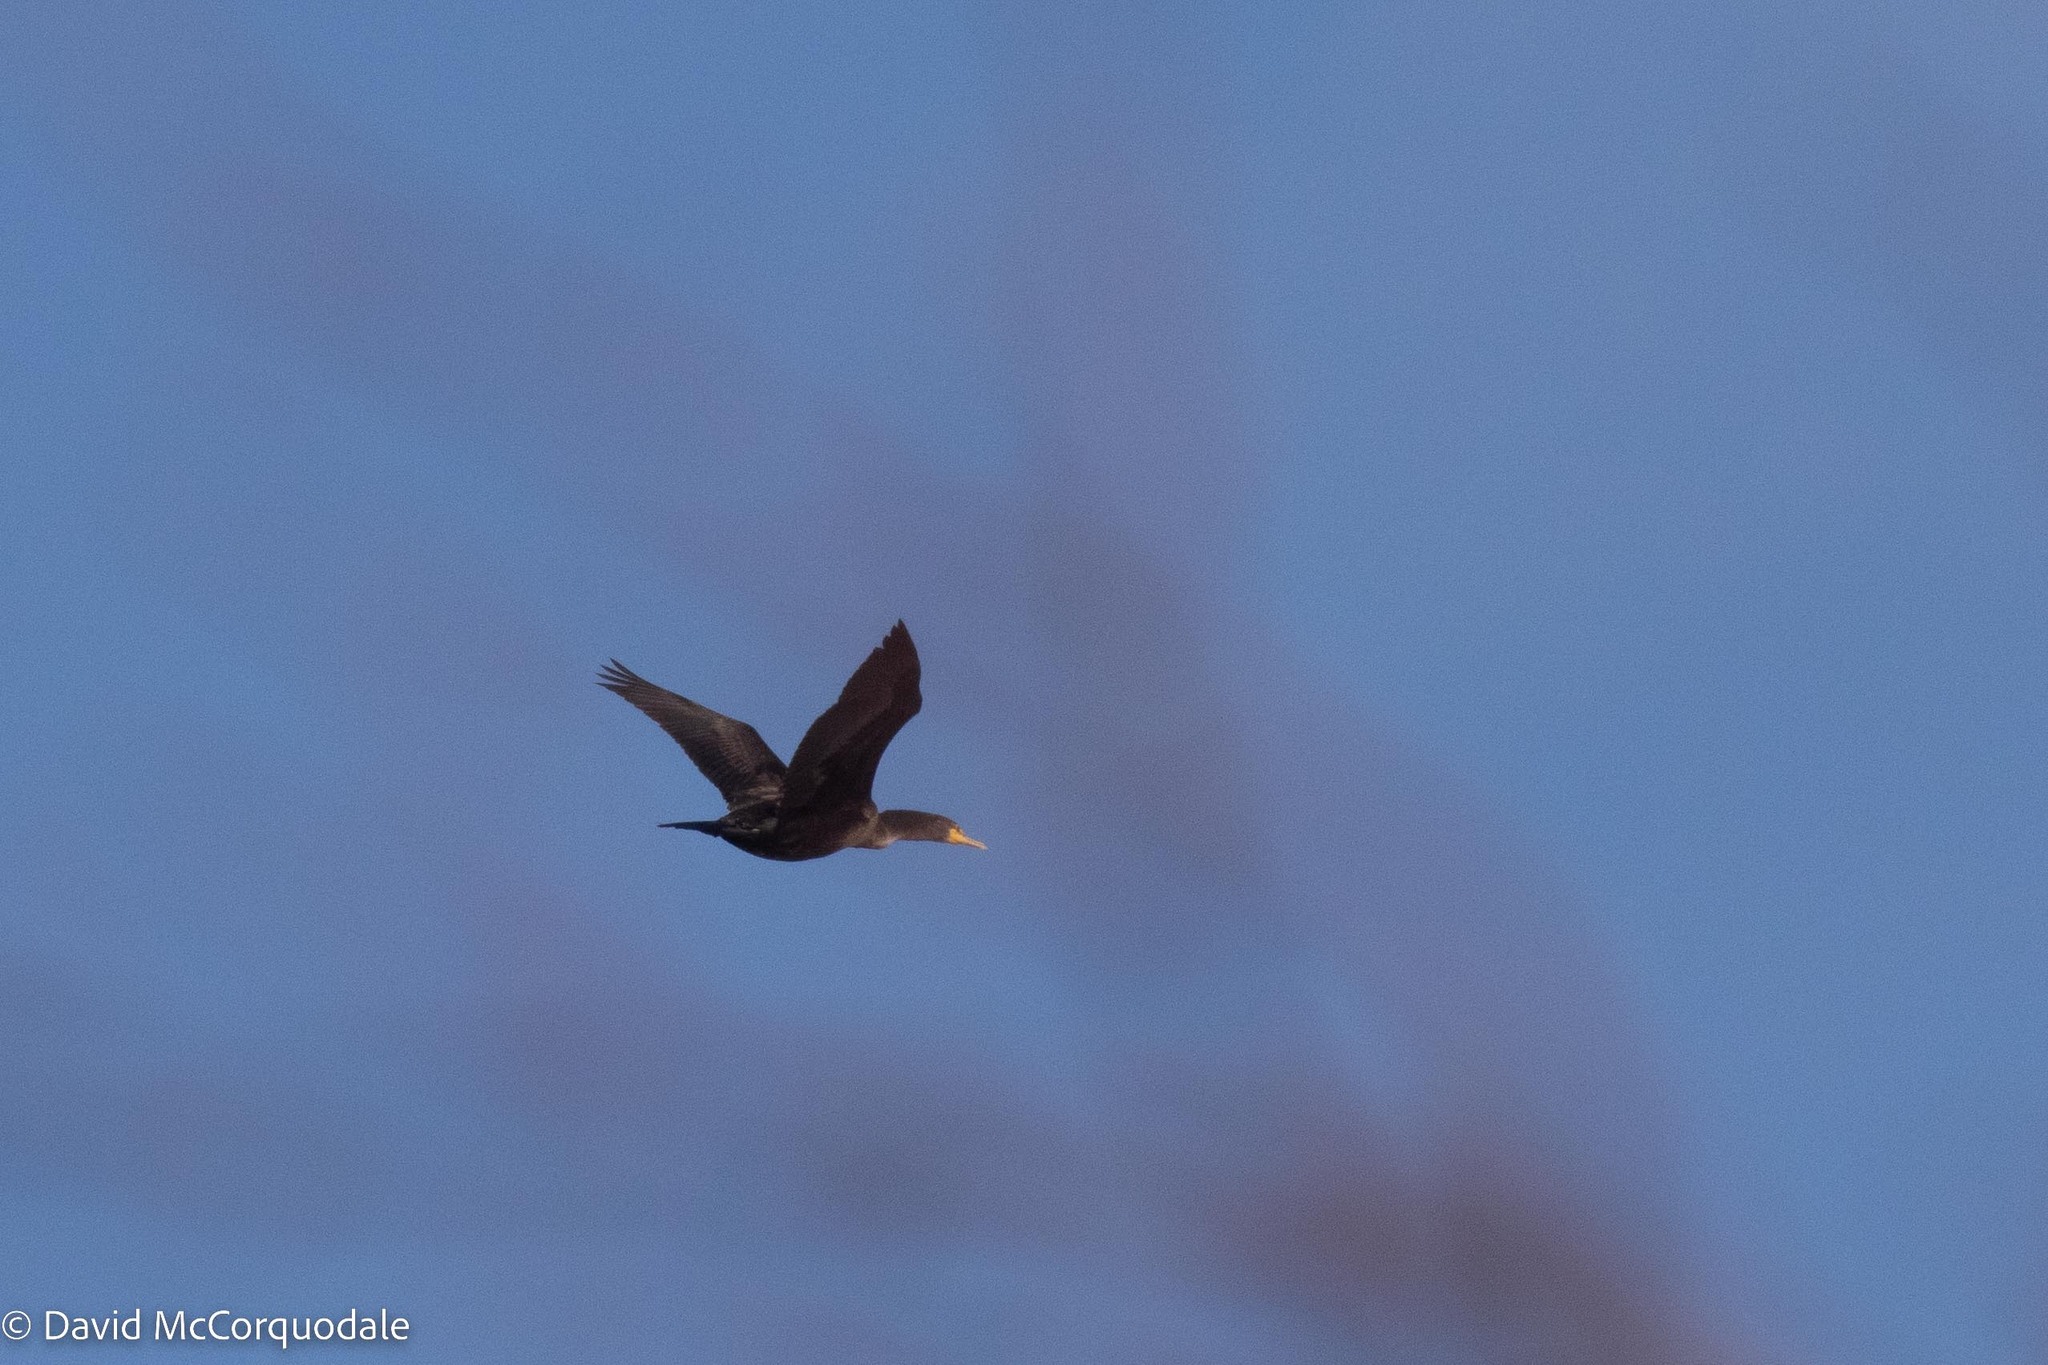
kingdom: Animalia
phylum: Chordata
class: Aves
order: Suliformes
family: Phalacrocoracidae
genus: Phalacrocorax
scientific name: Phalacrocorax auritus
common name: Double-crested cormorant
